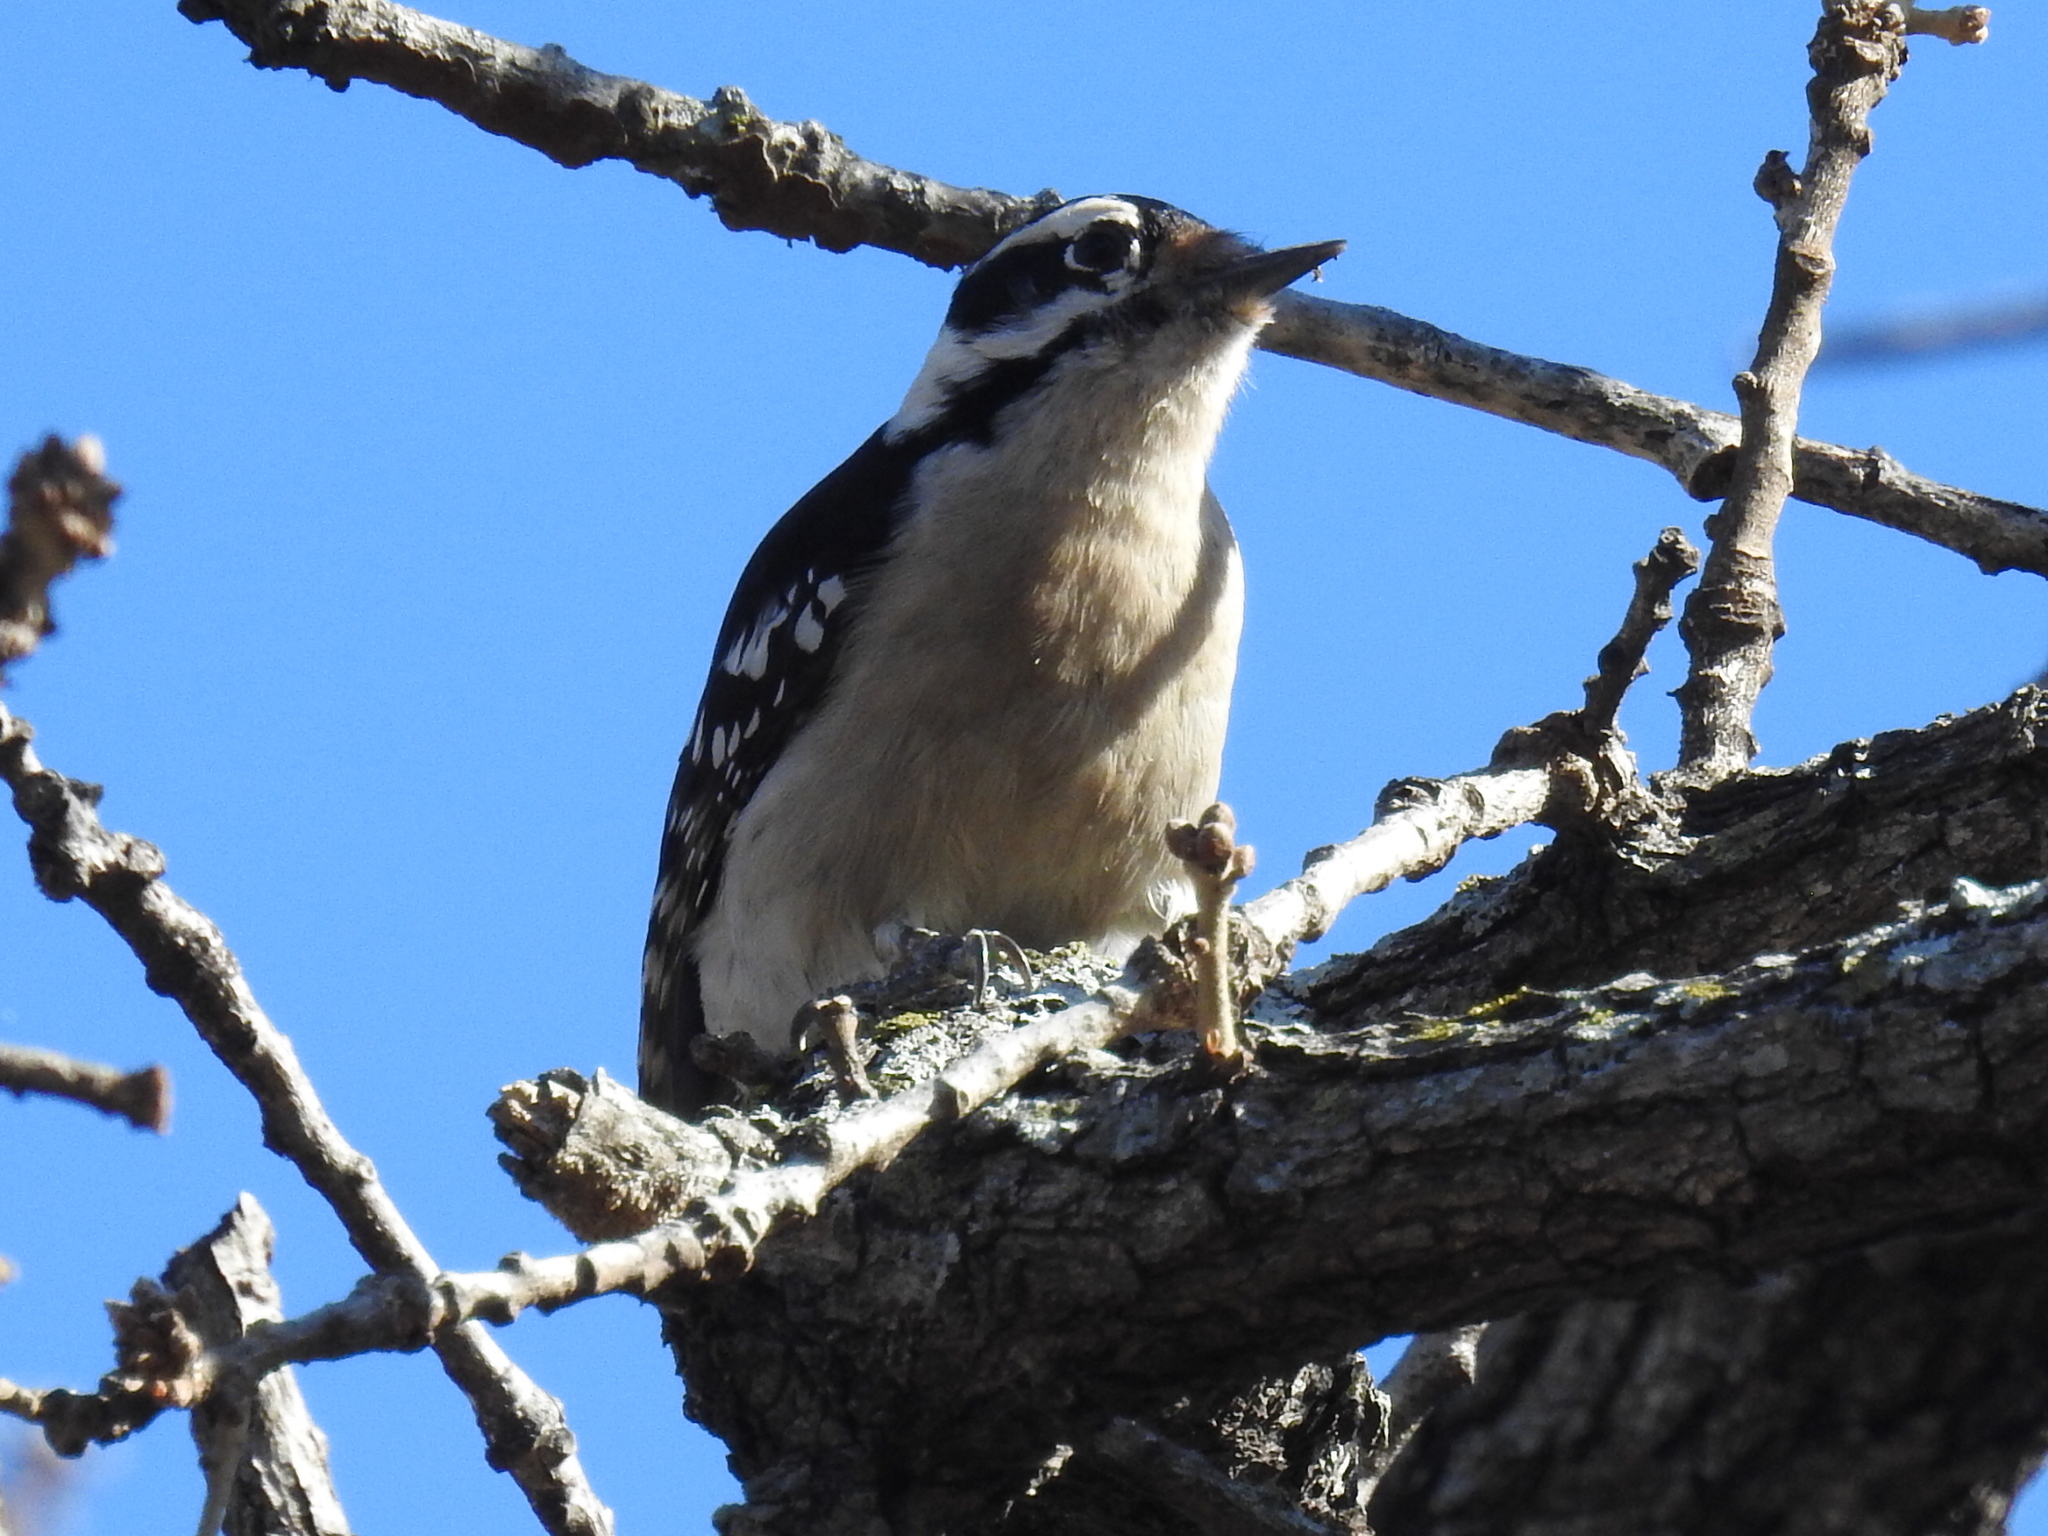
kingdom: Animalia
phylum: Chordata
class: Aves
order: Piciformes
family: Picidae
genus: Dryobates
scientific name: Dryobates pubescens
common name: Downy woodpecker
